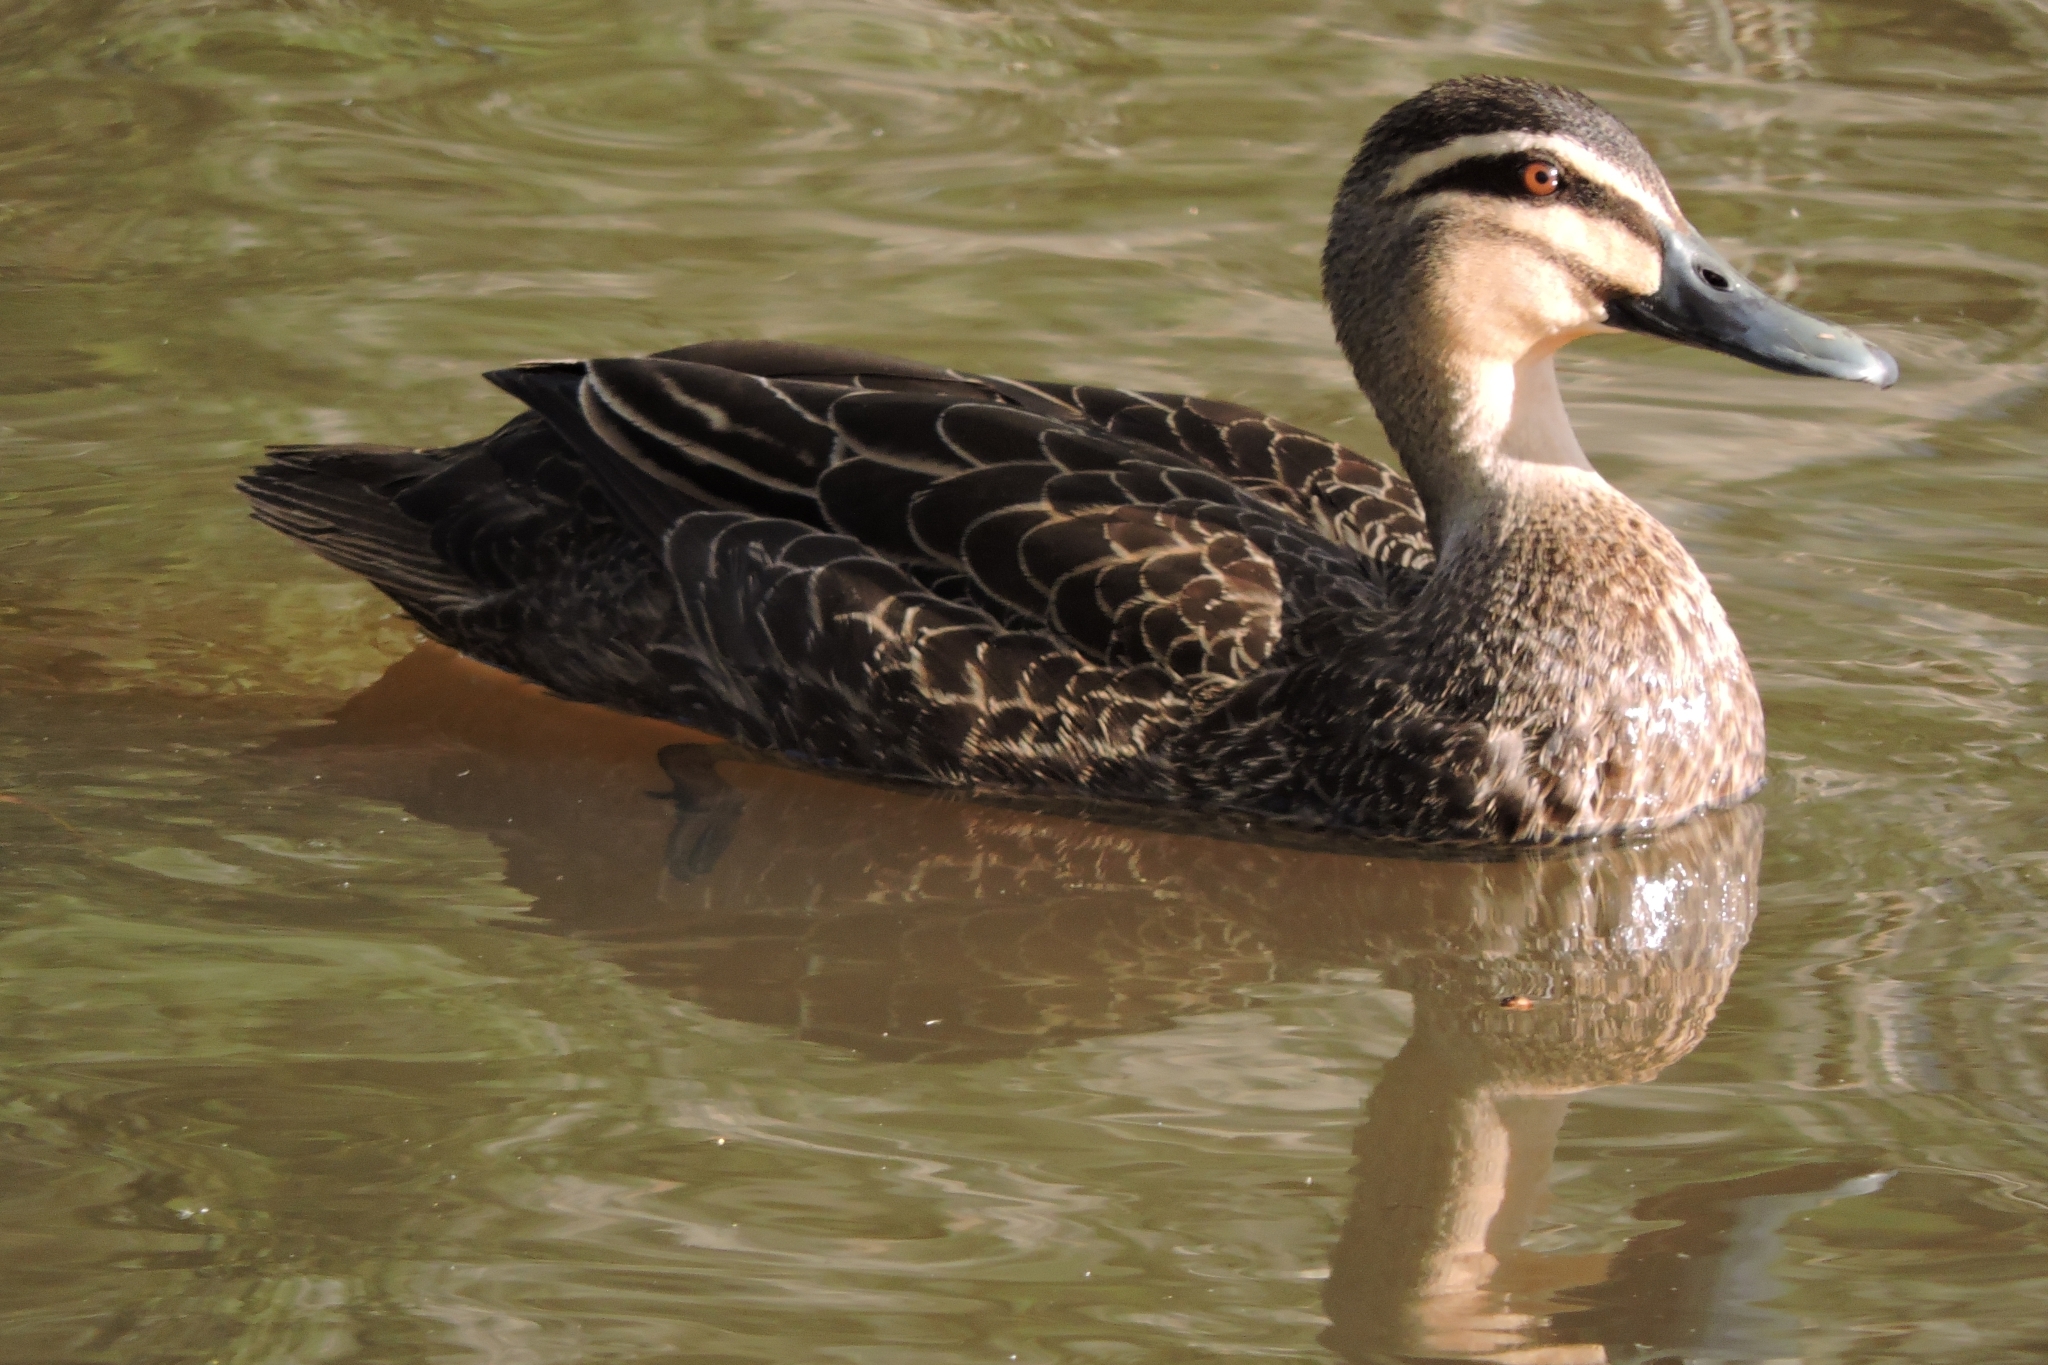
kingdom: Animalia
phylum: Chordata
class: Aves
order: Anseriformes
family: Anatidae
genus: Anas
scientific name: Anas superciliosa
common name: Pacific black duck
